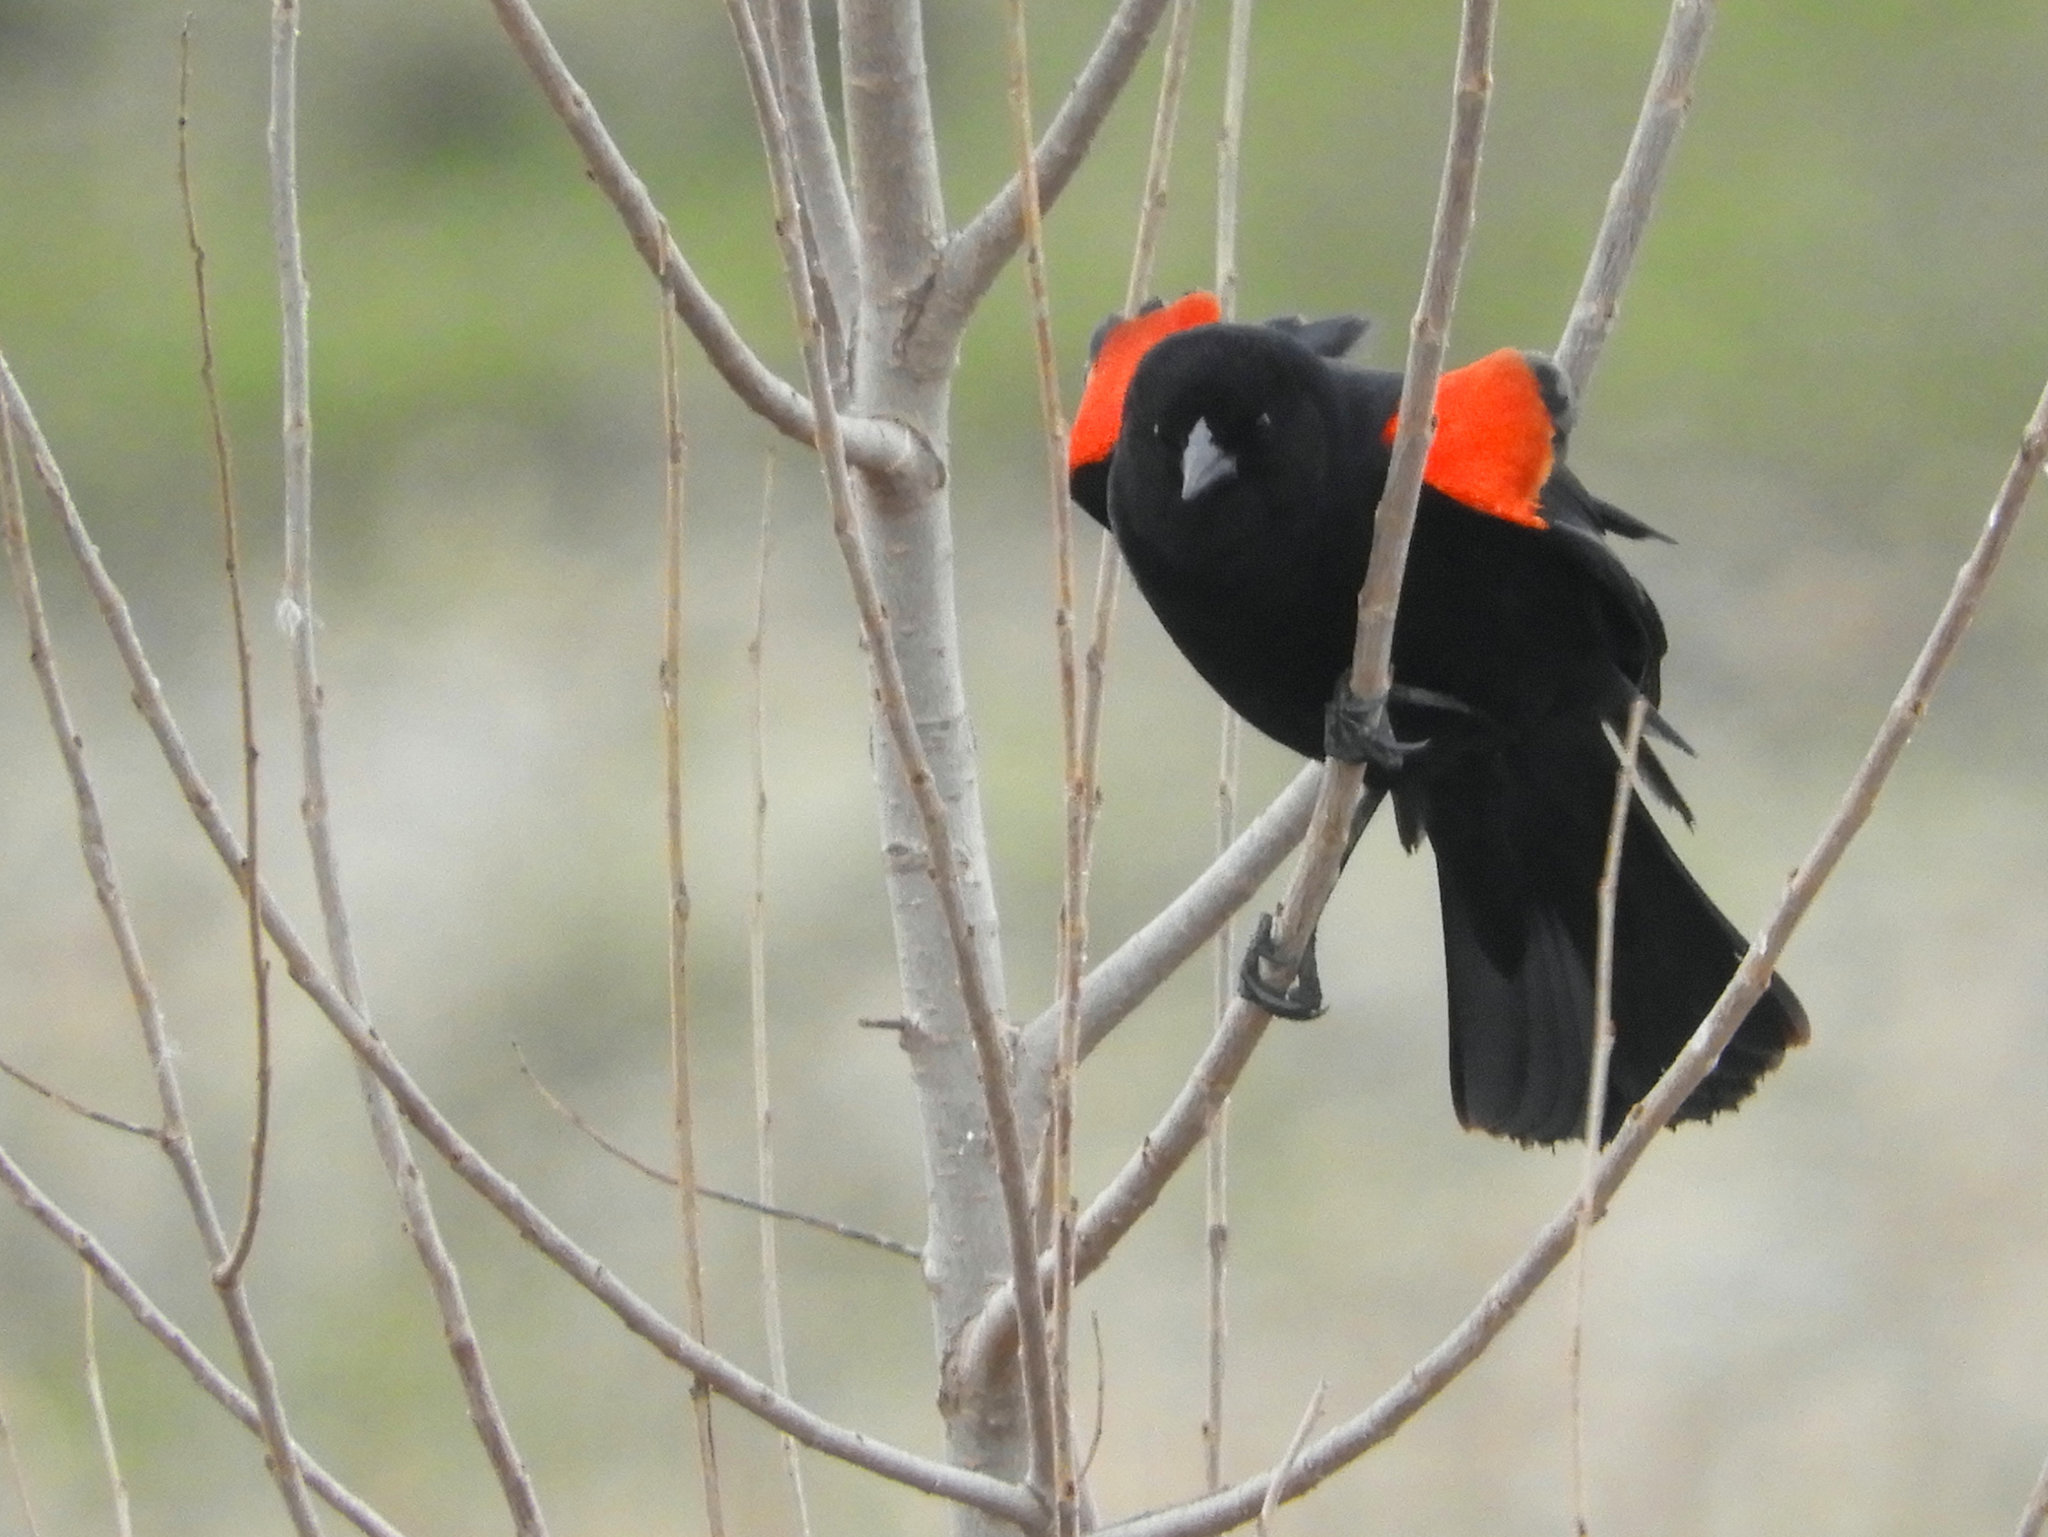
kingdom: Animalia
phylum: Chordata
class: Aves
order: Passeriformes
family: Icteridae
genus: Agelaius
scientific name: Agelaius phoeniceus
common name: Red-winged blackbird
